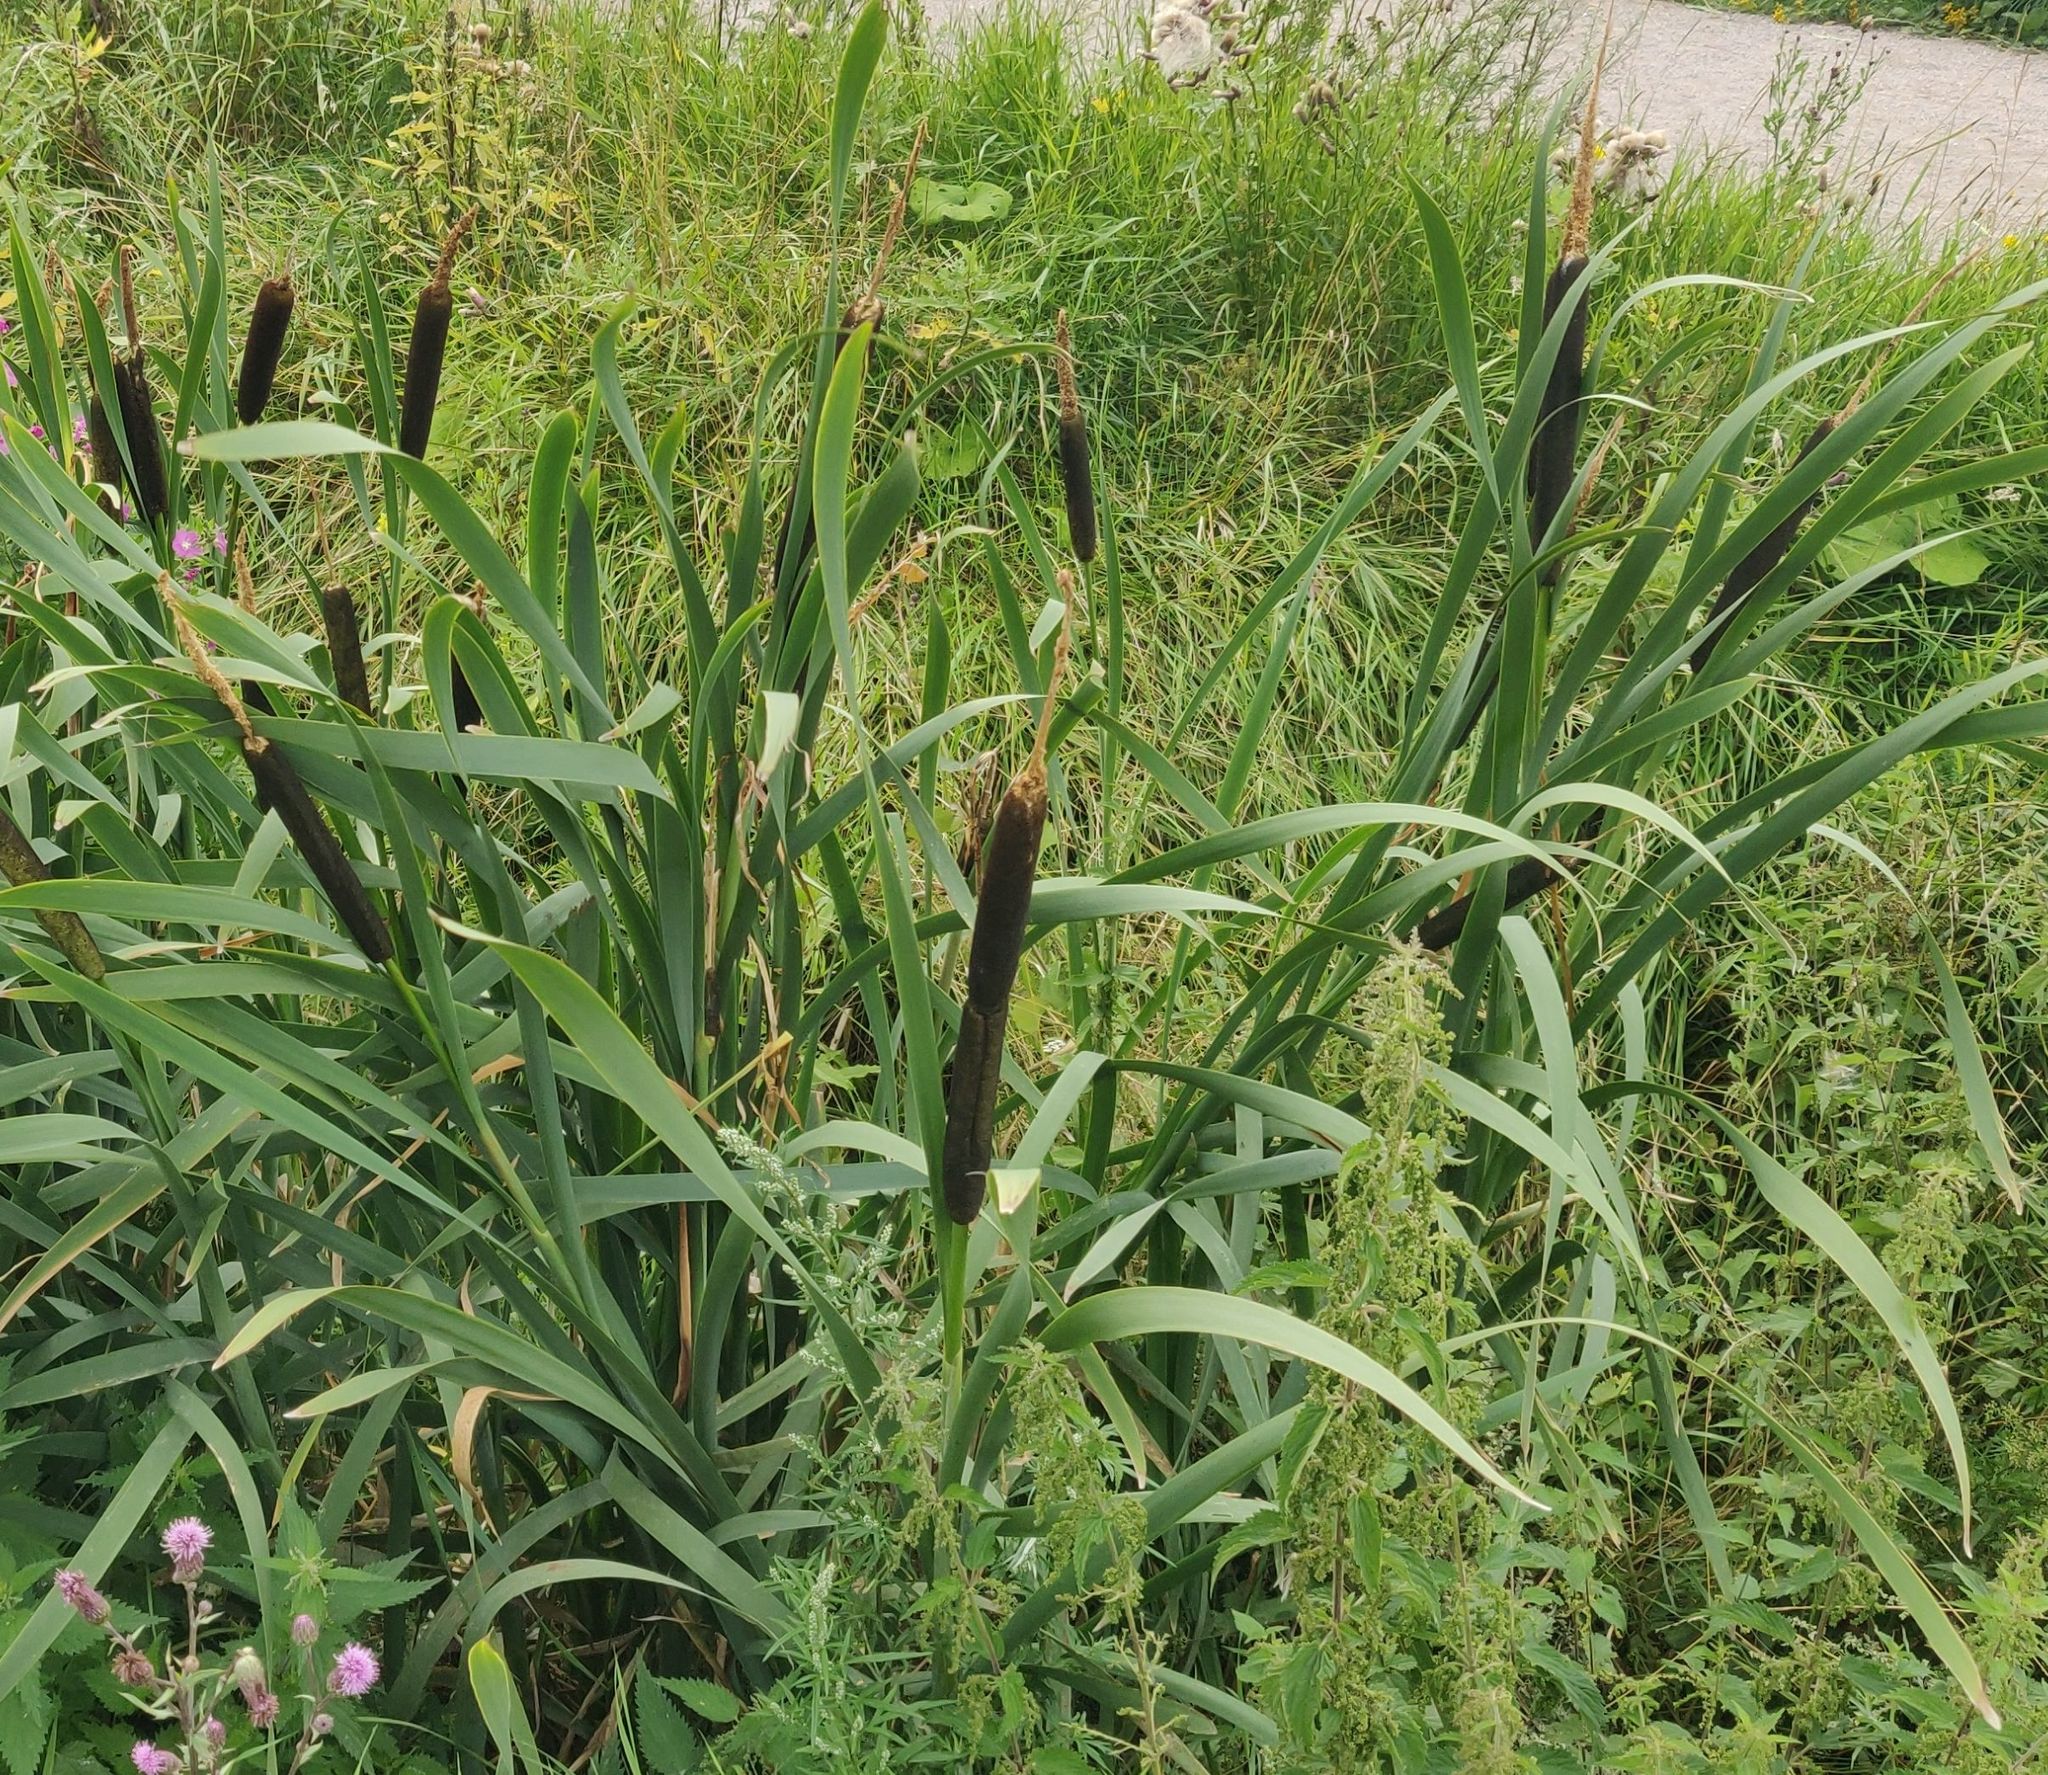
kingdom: Plantae
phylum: Tracheophyta
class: Liliopsida
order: Poales
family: Typhaceae
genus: Typha
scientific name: Typha latifolia
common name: Broadleaf cattail
